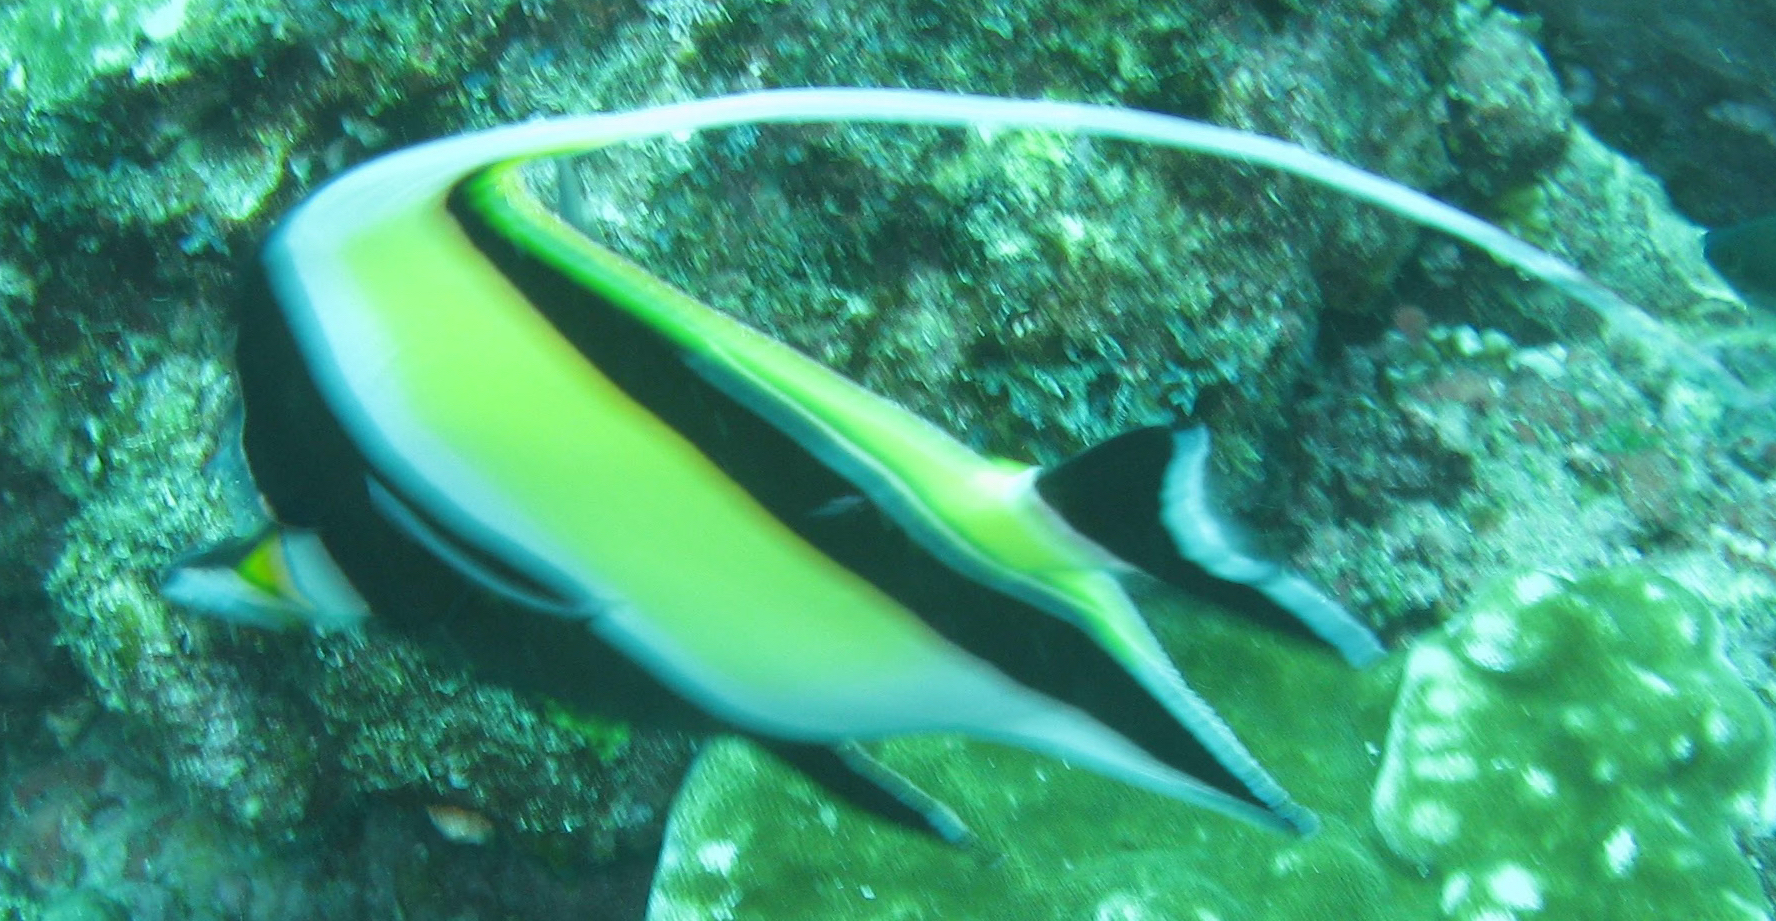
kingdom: Animalia
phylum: Chordata
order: Perciformes
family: Zanclidae
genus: Zanclus
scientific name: Zanclus cornutus
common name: Moorish idol
